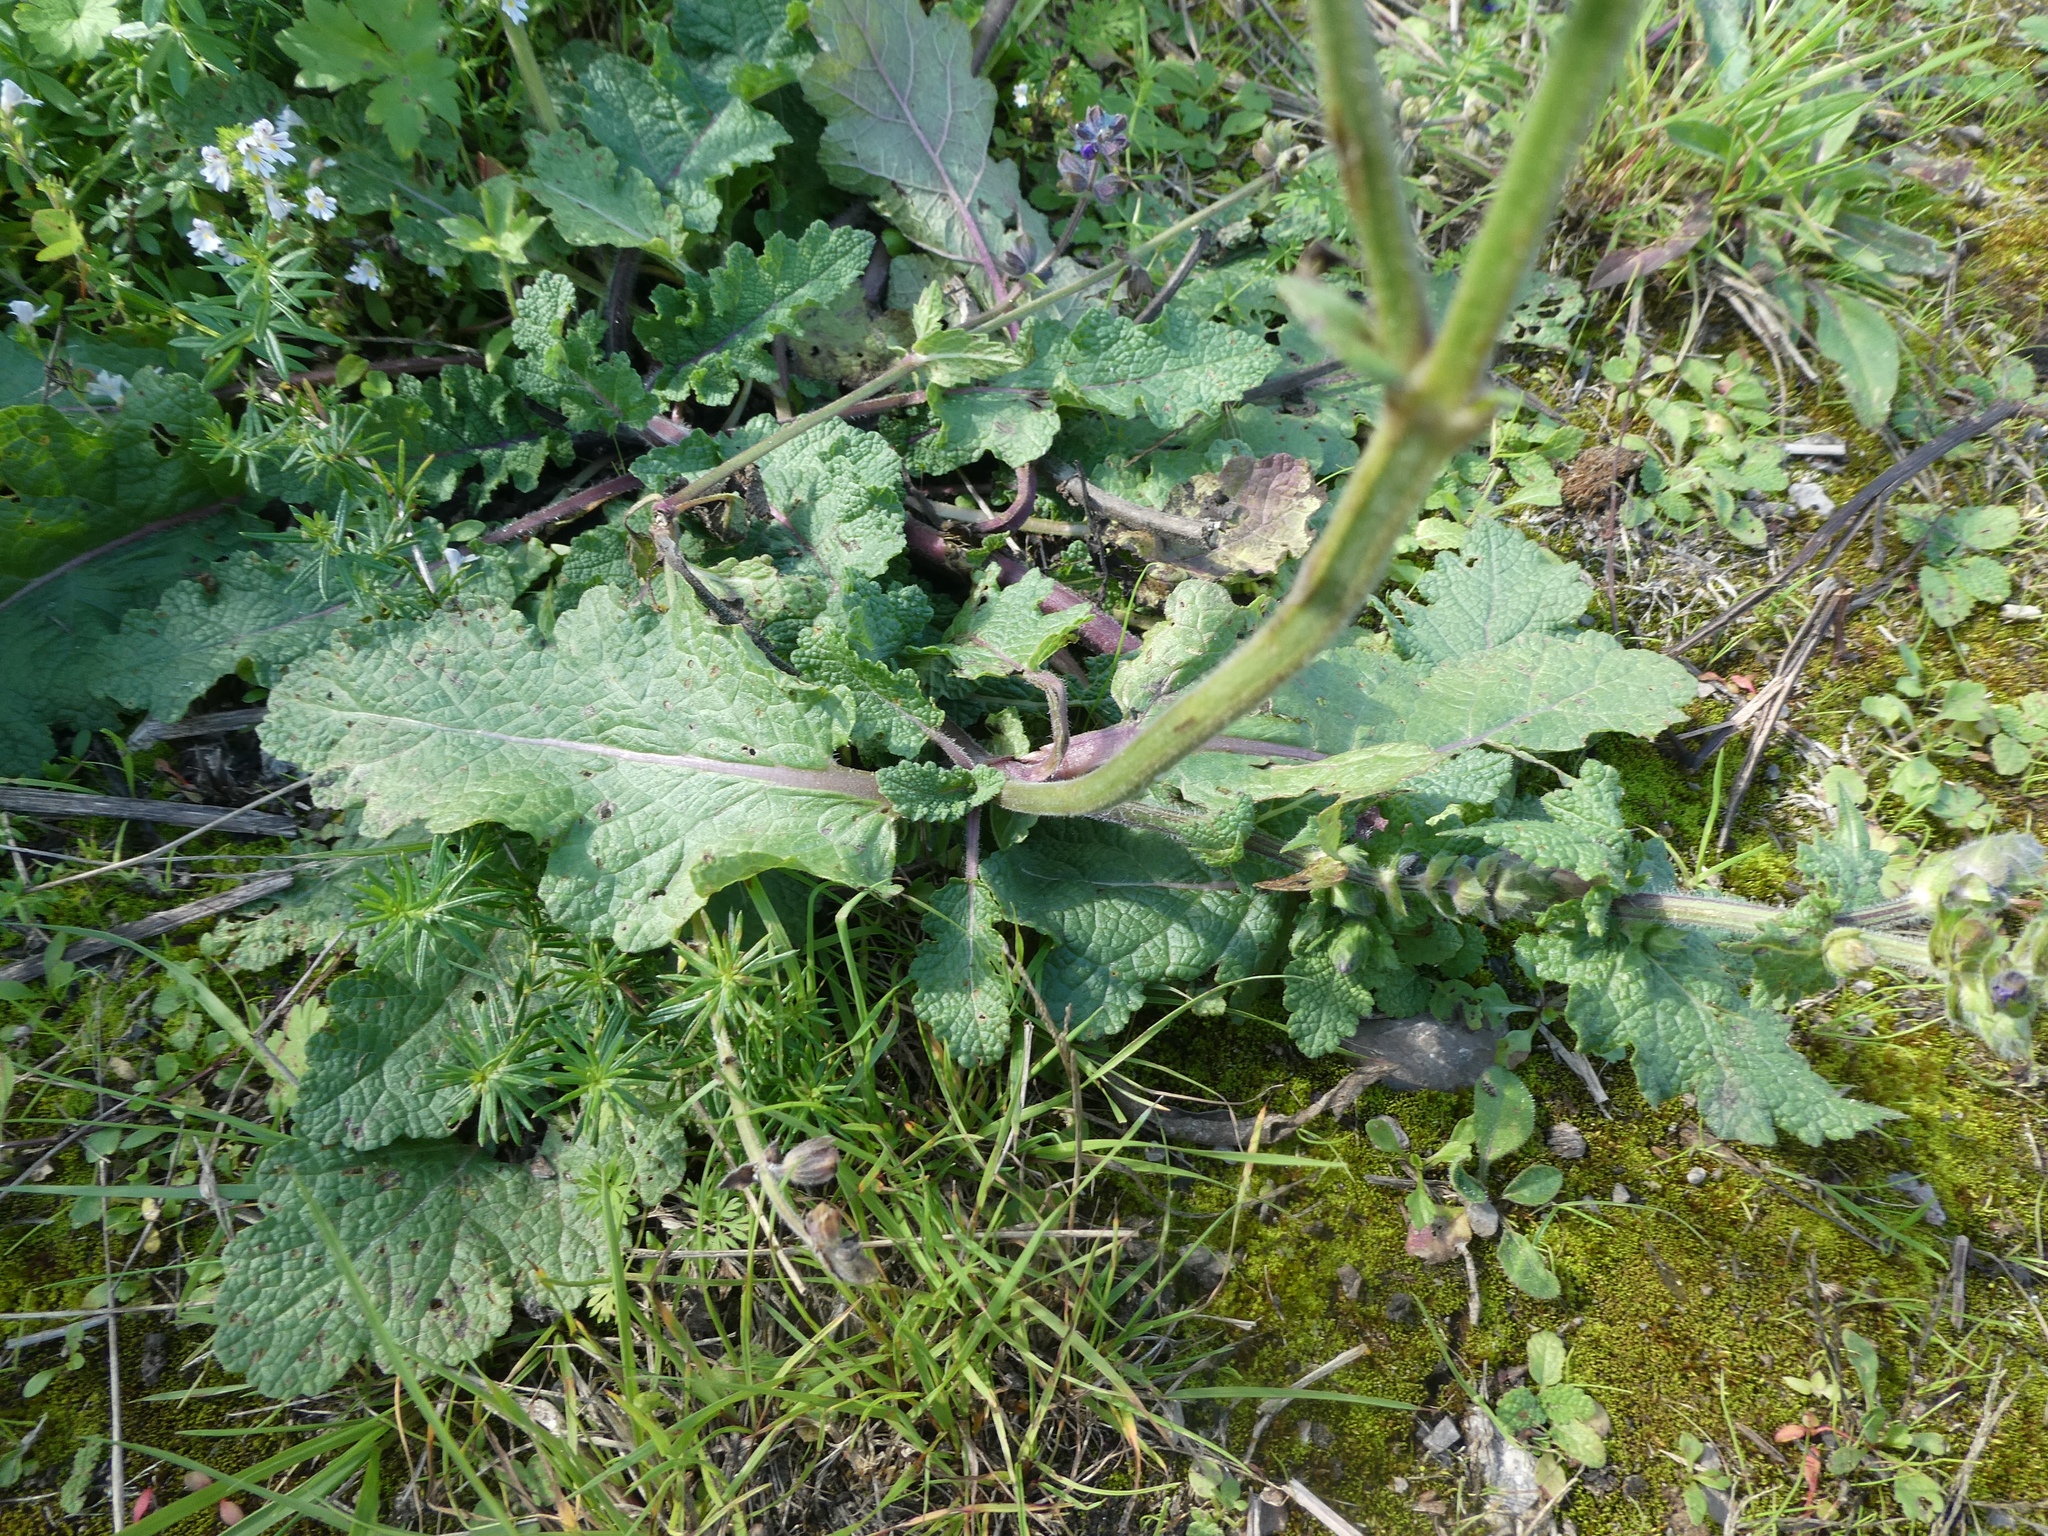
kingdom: Plantae
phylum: Tracheophyta
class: Magnoliopsida
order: Lamiales
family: Lamiaceae
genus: Salvia
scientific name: Salvia verbenaca
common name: Wild clary
